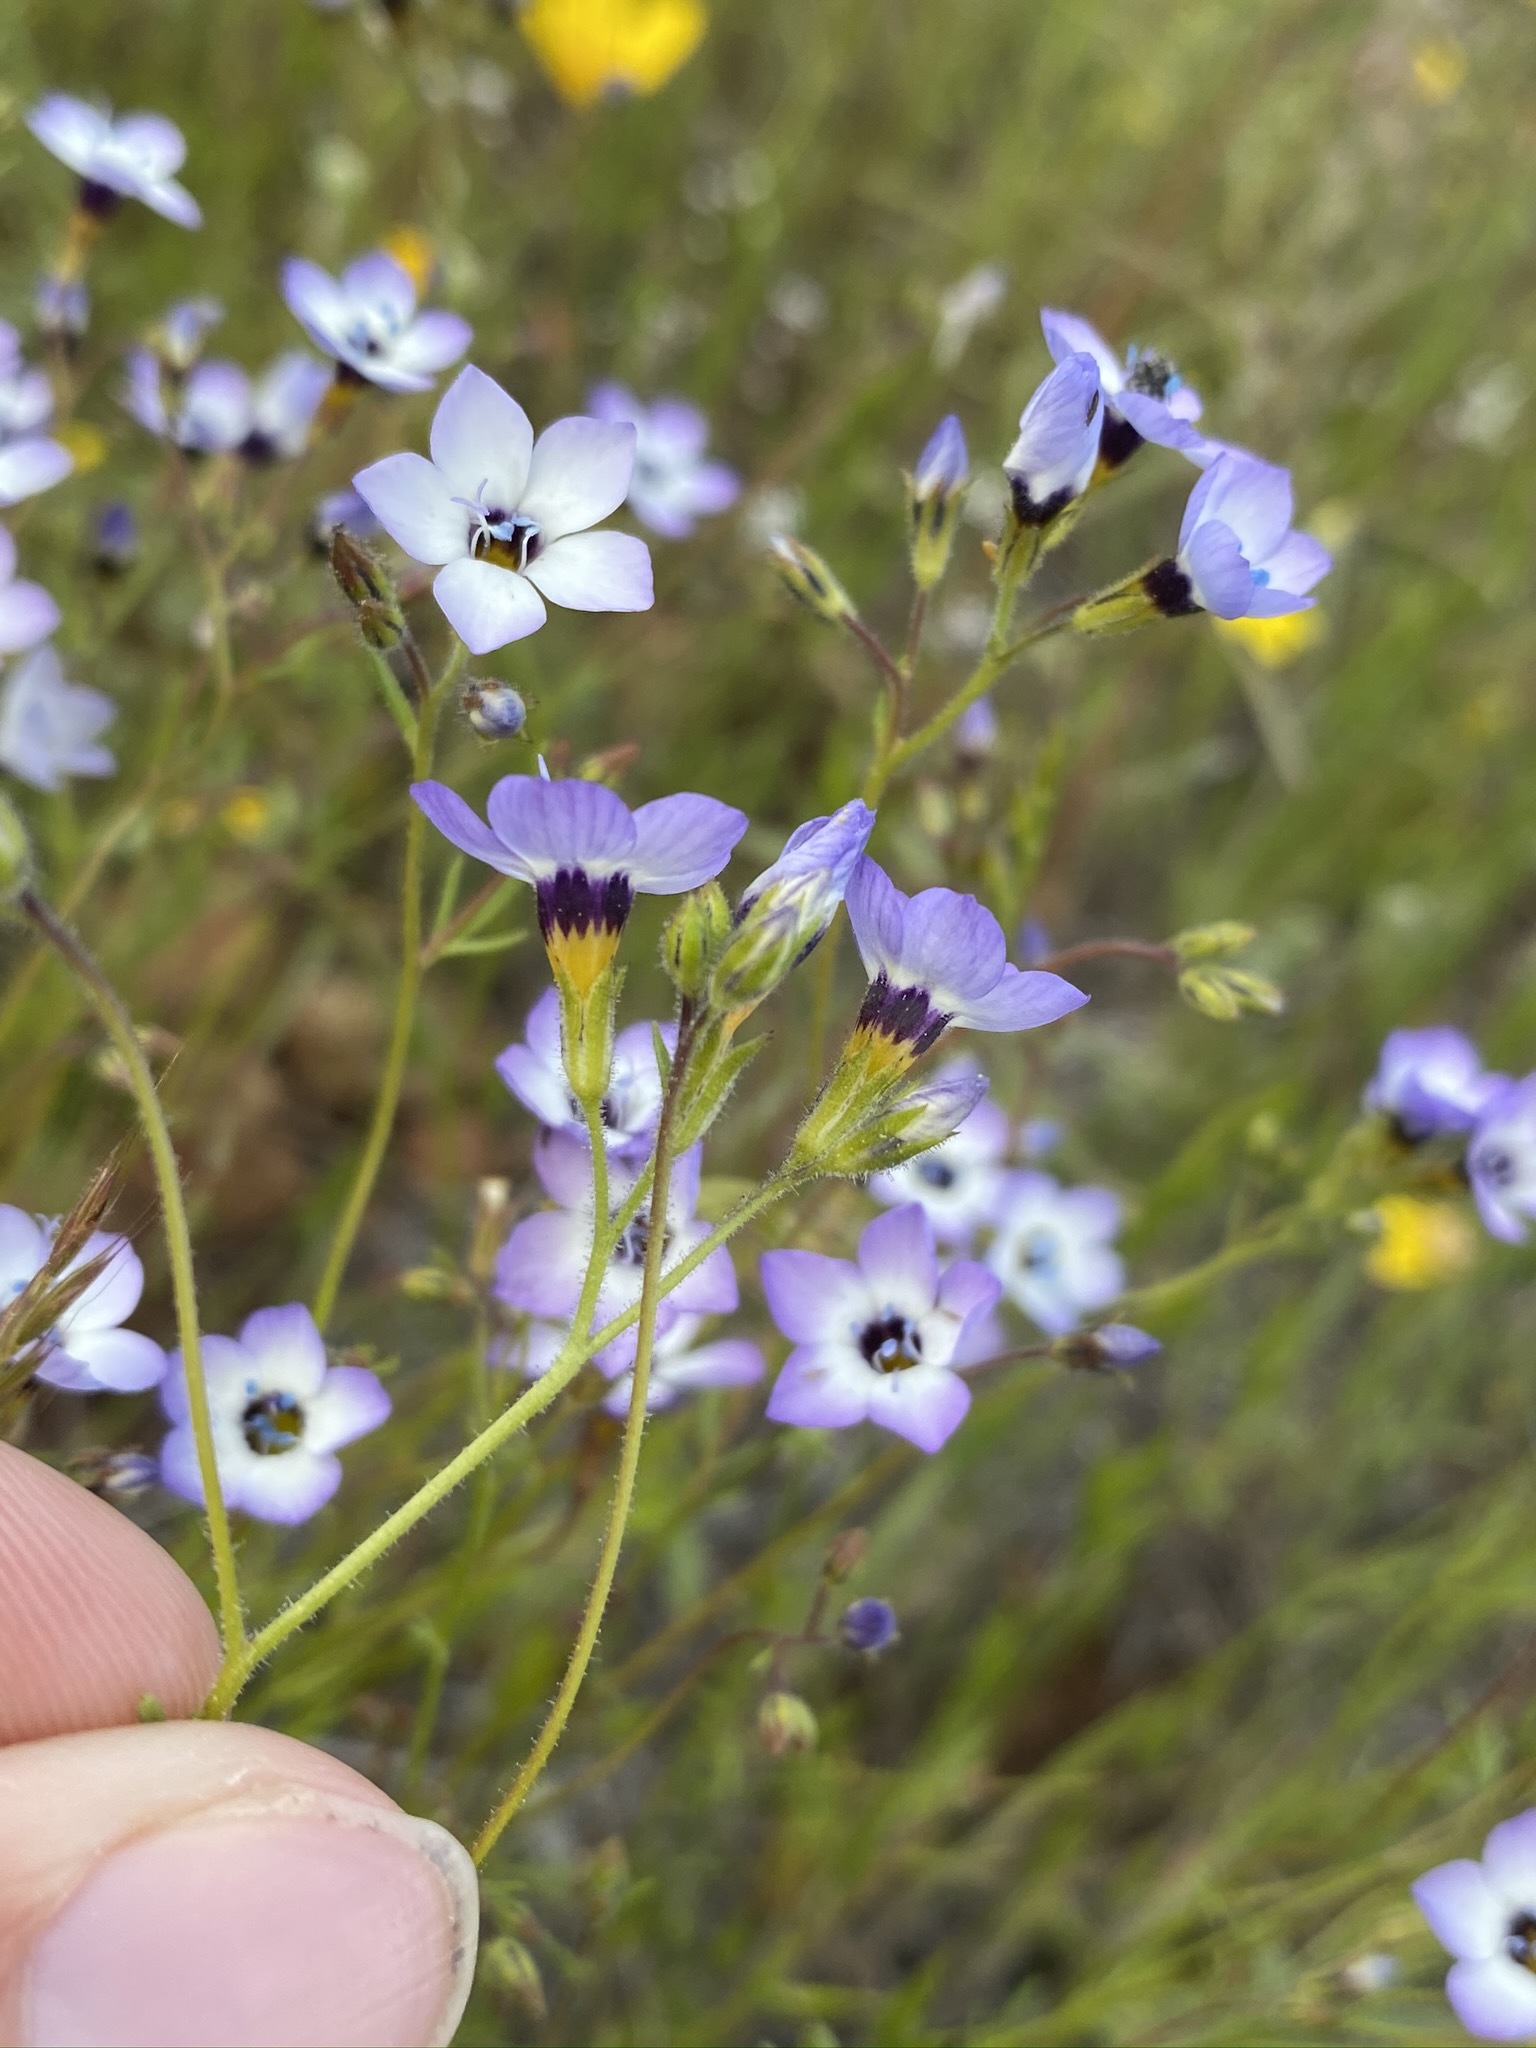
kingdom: Plantae
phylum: Tracheophyta
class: Magnoliopsida
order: Ericales
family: Polemoniaceae
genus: Gilia
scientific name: Gilia tricolor
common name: Bird's-eyes
